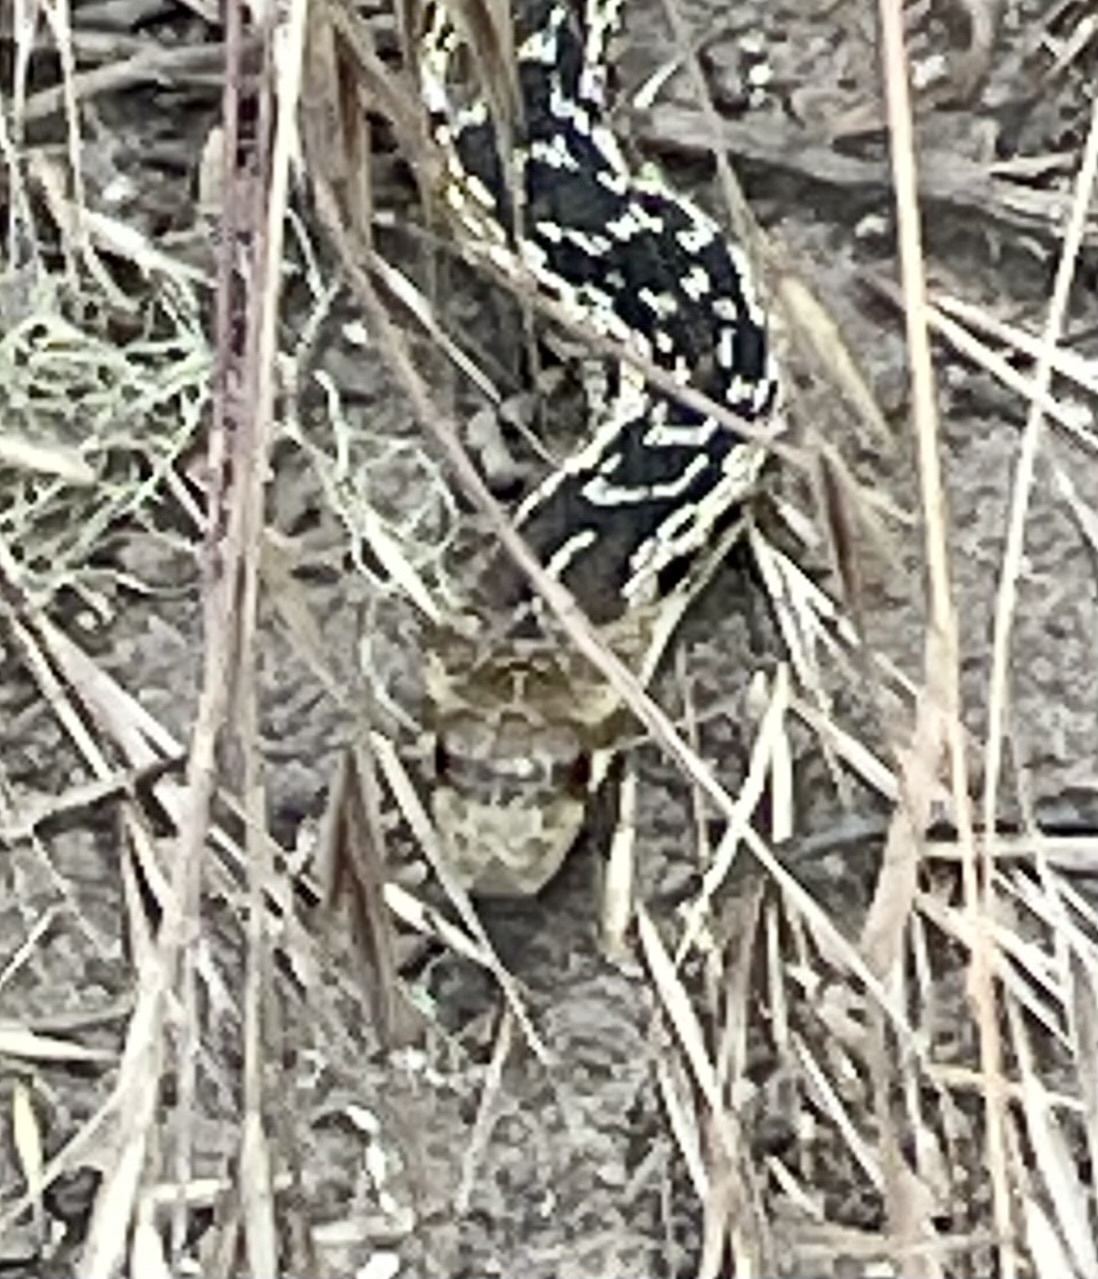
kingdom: Animalia
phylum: Chordata
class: Squamata
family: Colubridae
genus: Pituophis
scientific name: Pituophis catenifer
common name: Gopher snake
